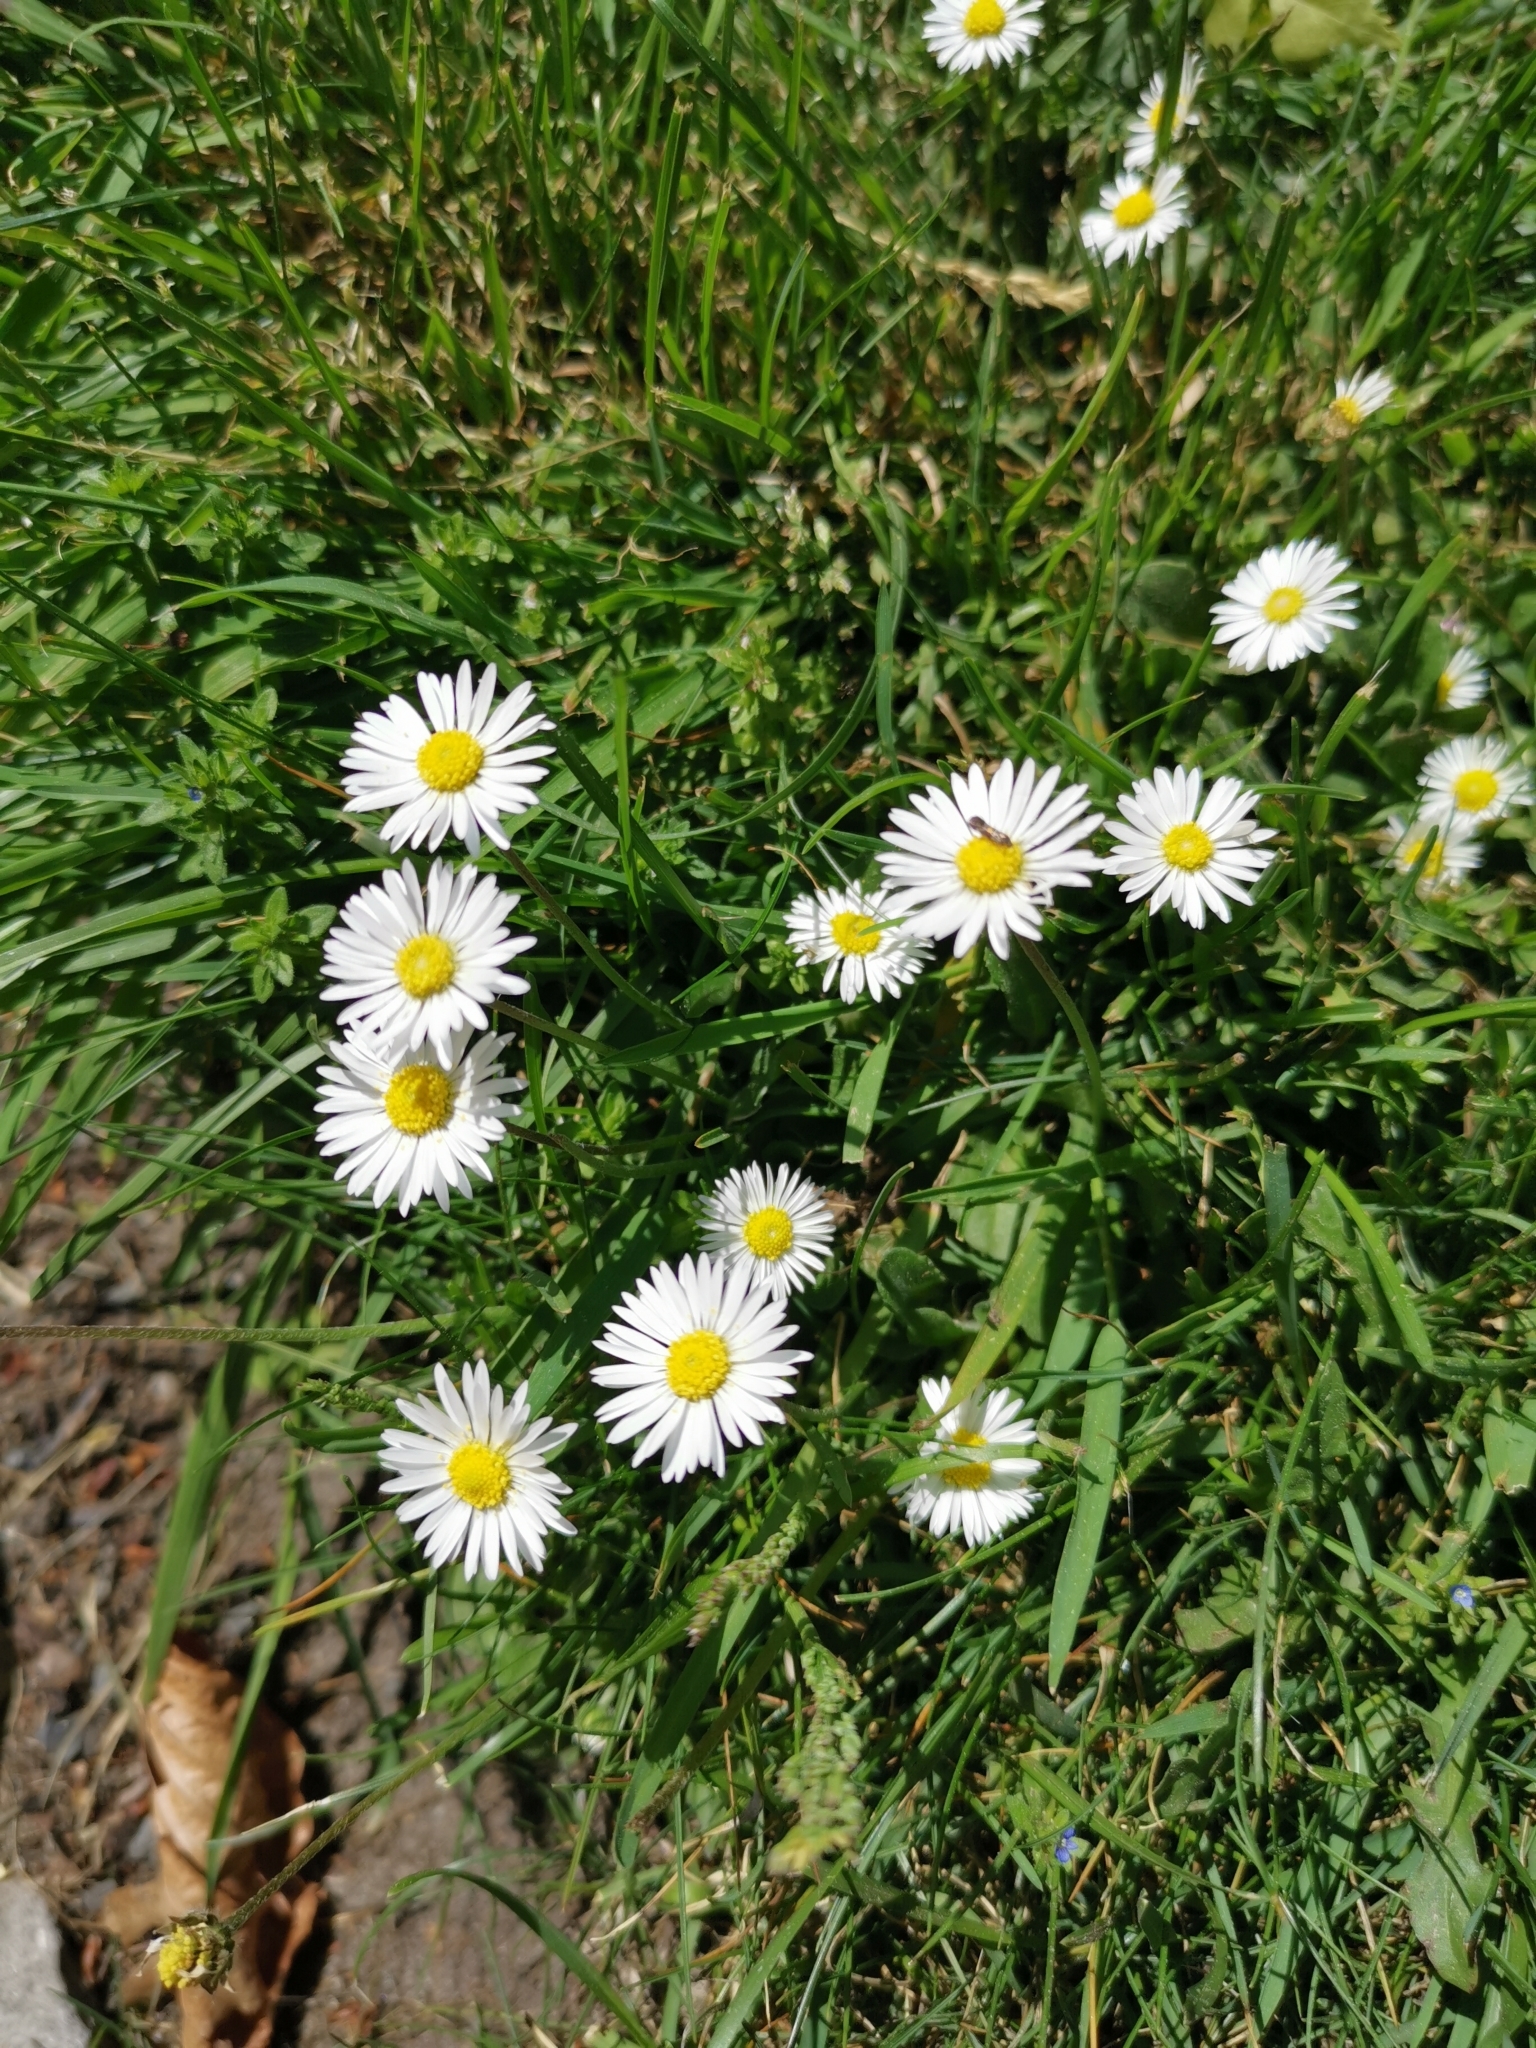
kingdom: Plantae
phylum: Tracheophyta
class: Magnoliopsida
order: Asterales
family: Asteraceae
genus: Bellis
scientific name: Bellis perennis
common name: Lawndaisy
